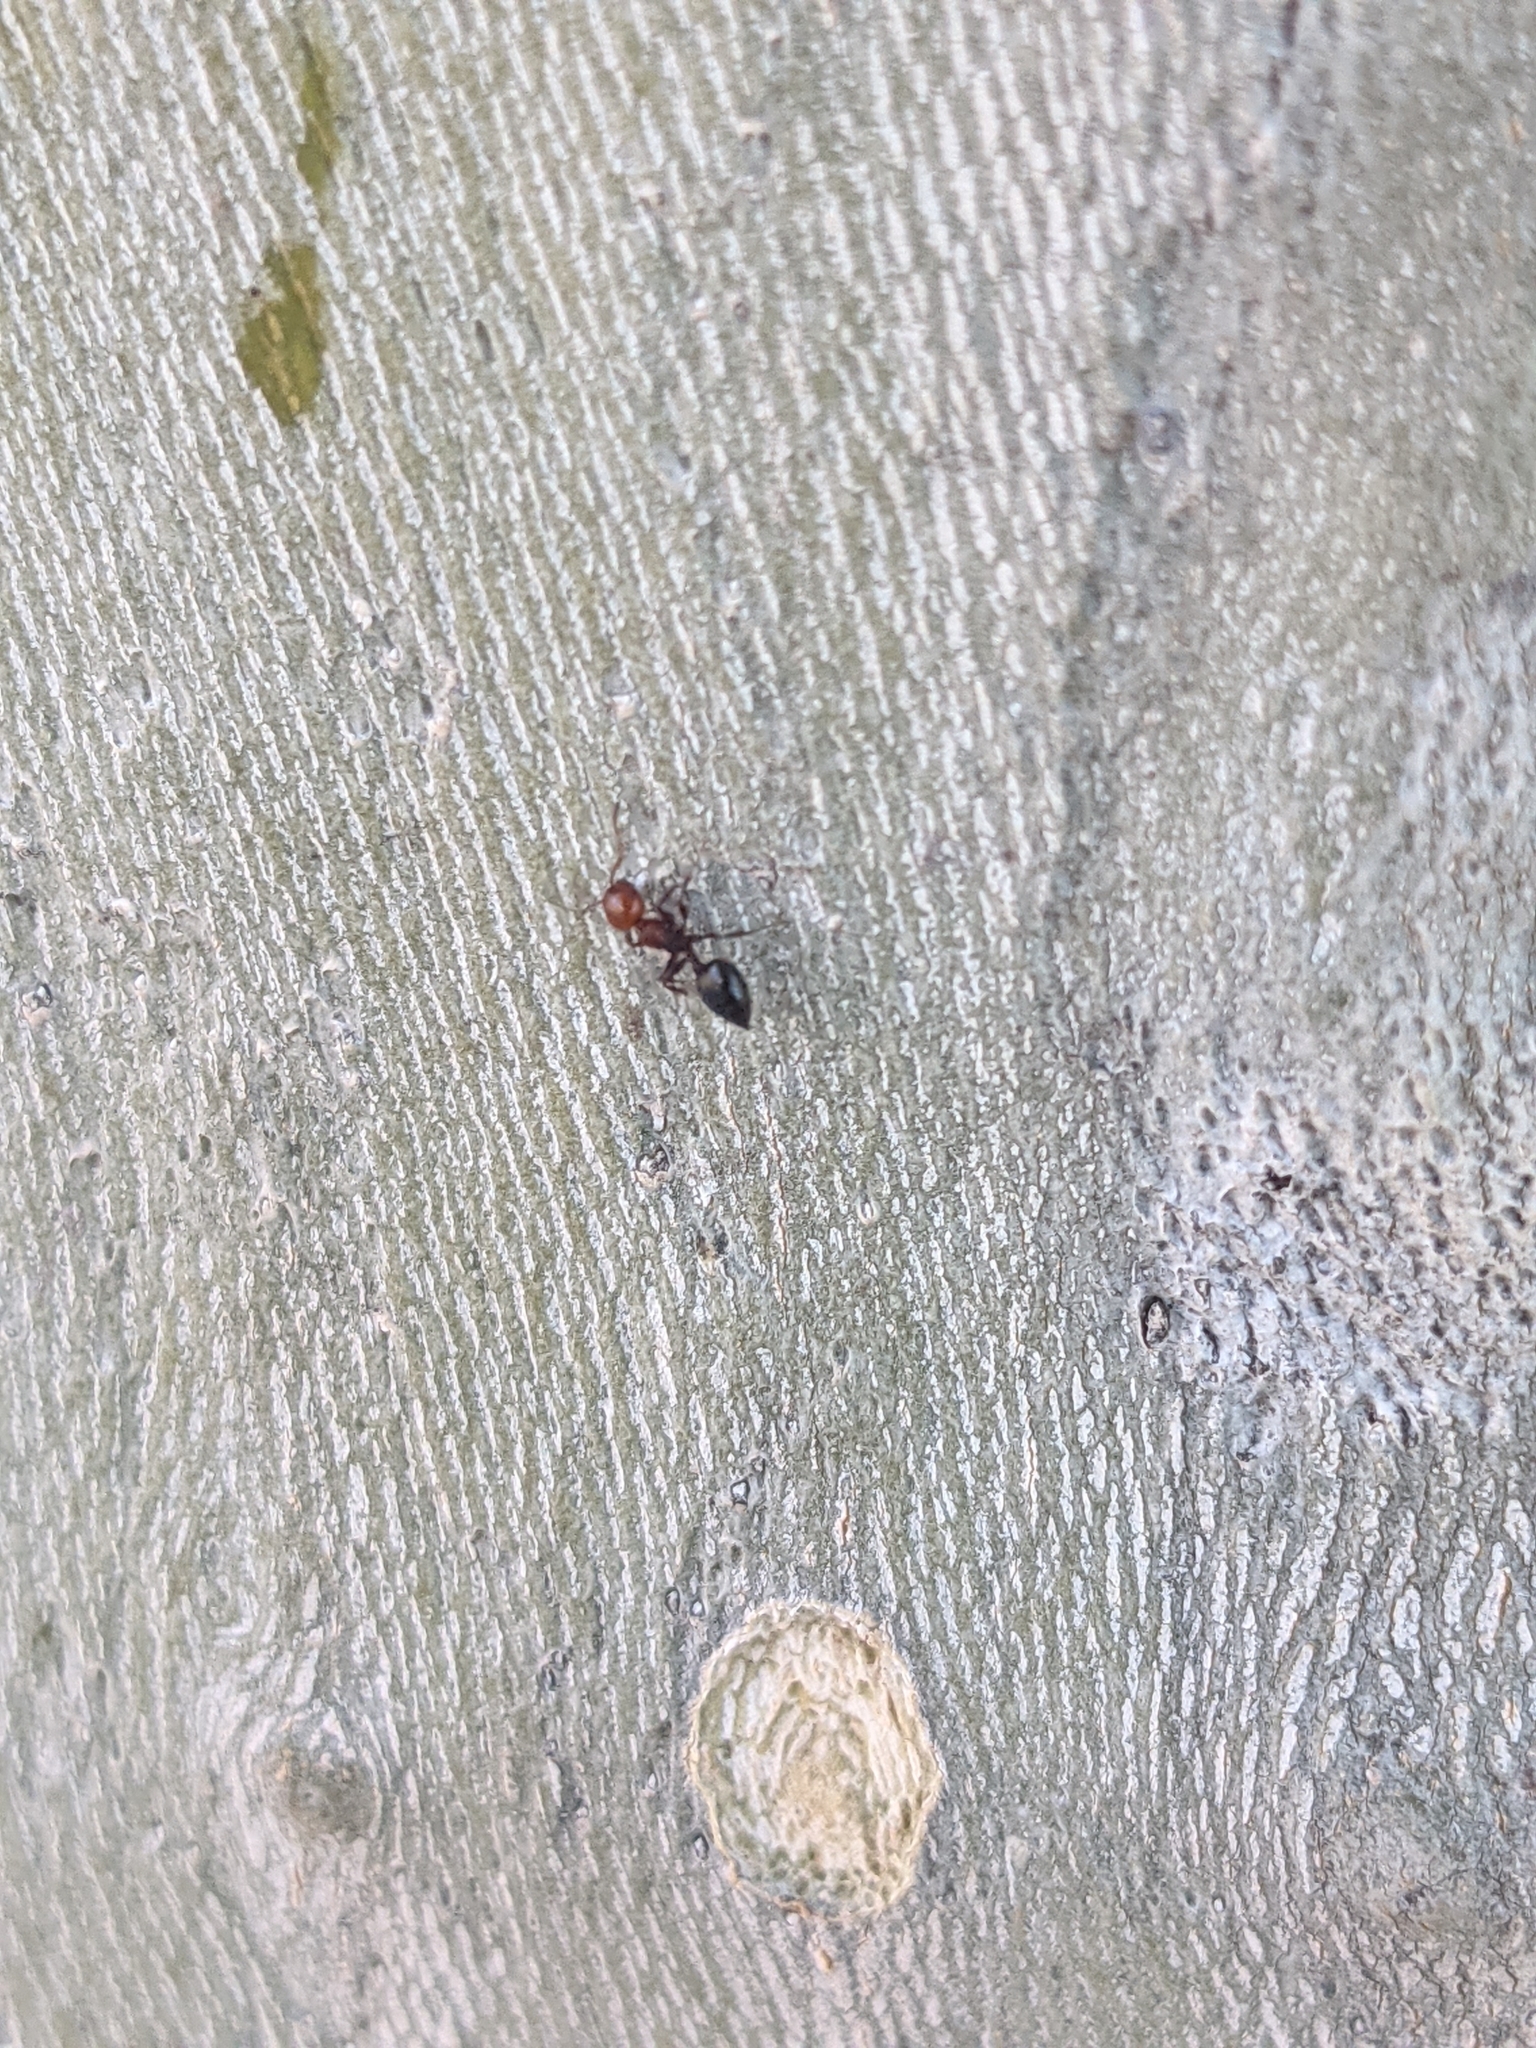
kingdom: Animalia
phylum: Arthropoda
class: Insecta
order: Hymenoptera
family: Formicidae
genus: Crematogaster
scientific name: Crematogaster scutellaris
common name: Fourmi du liège
